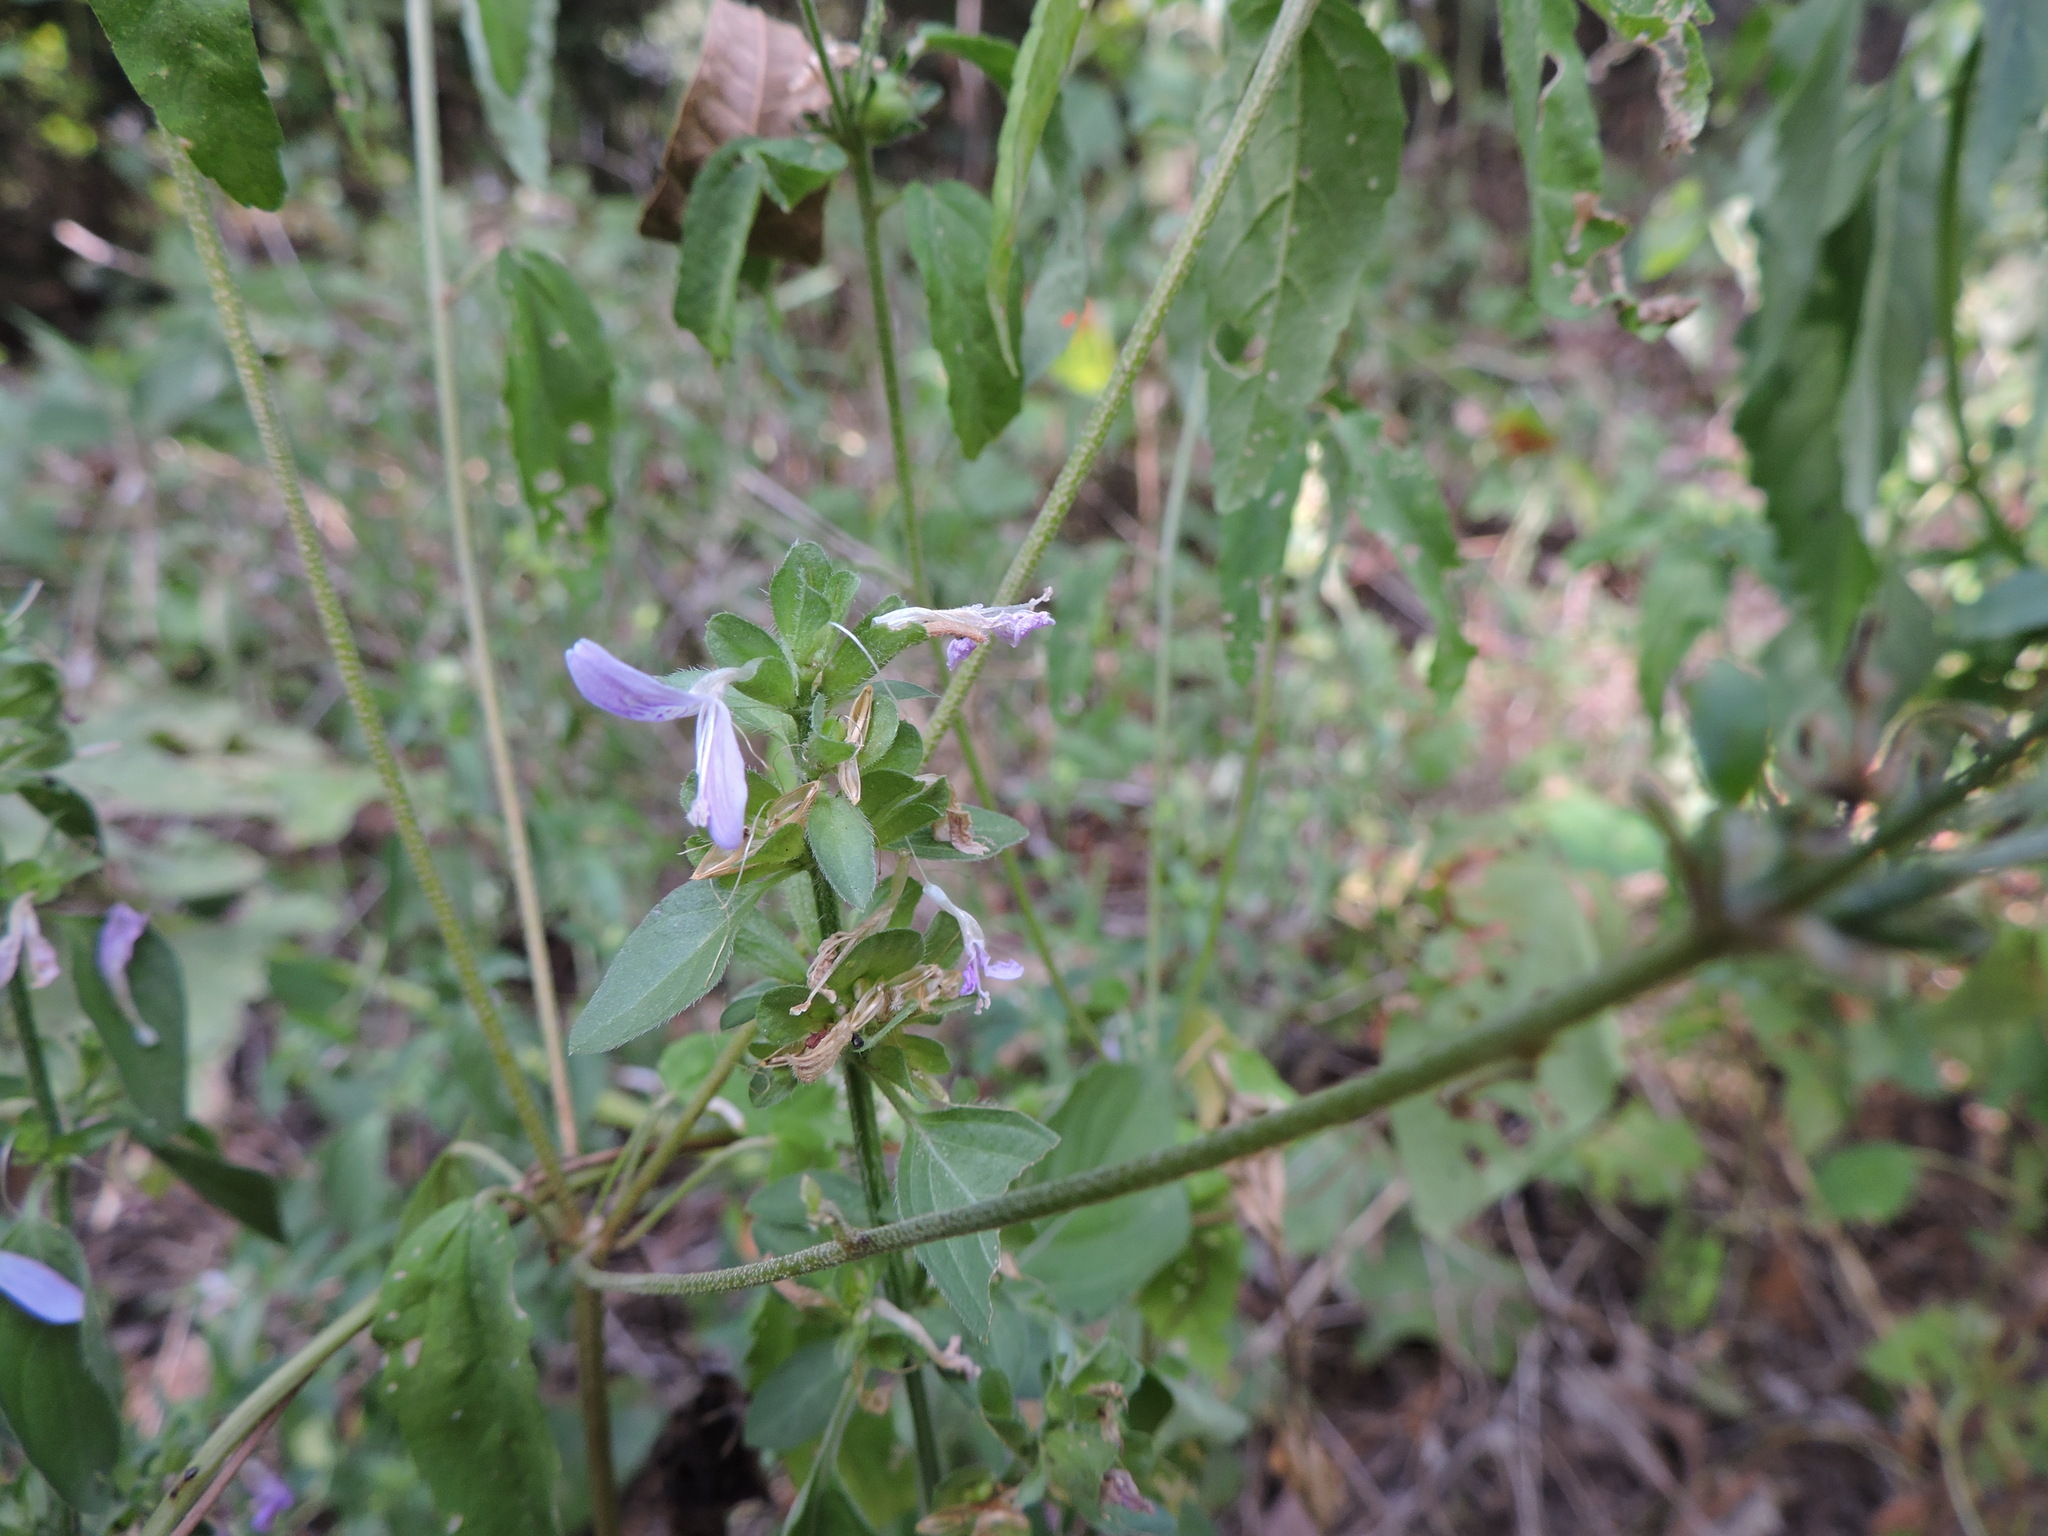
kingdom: Plantae
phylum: Tracheophyta
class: Magnoliopsida
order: Lamiales
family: Acanthaceae
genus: Dicliptera
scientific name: Dicliptera brachiata
